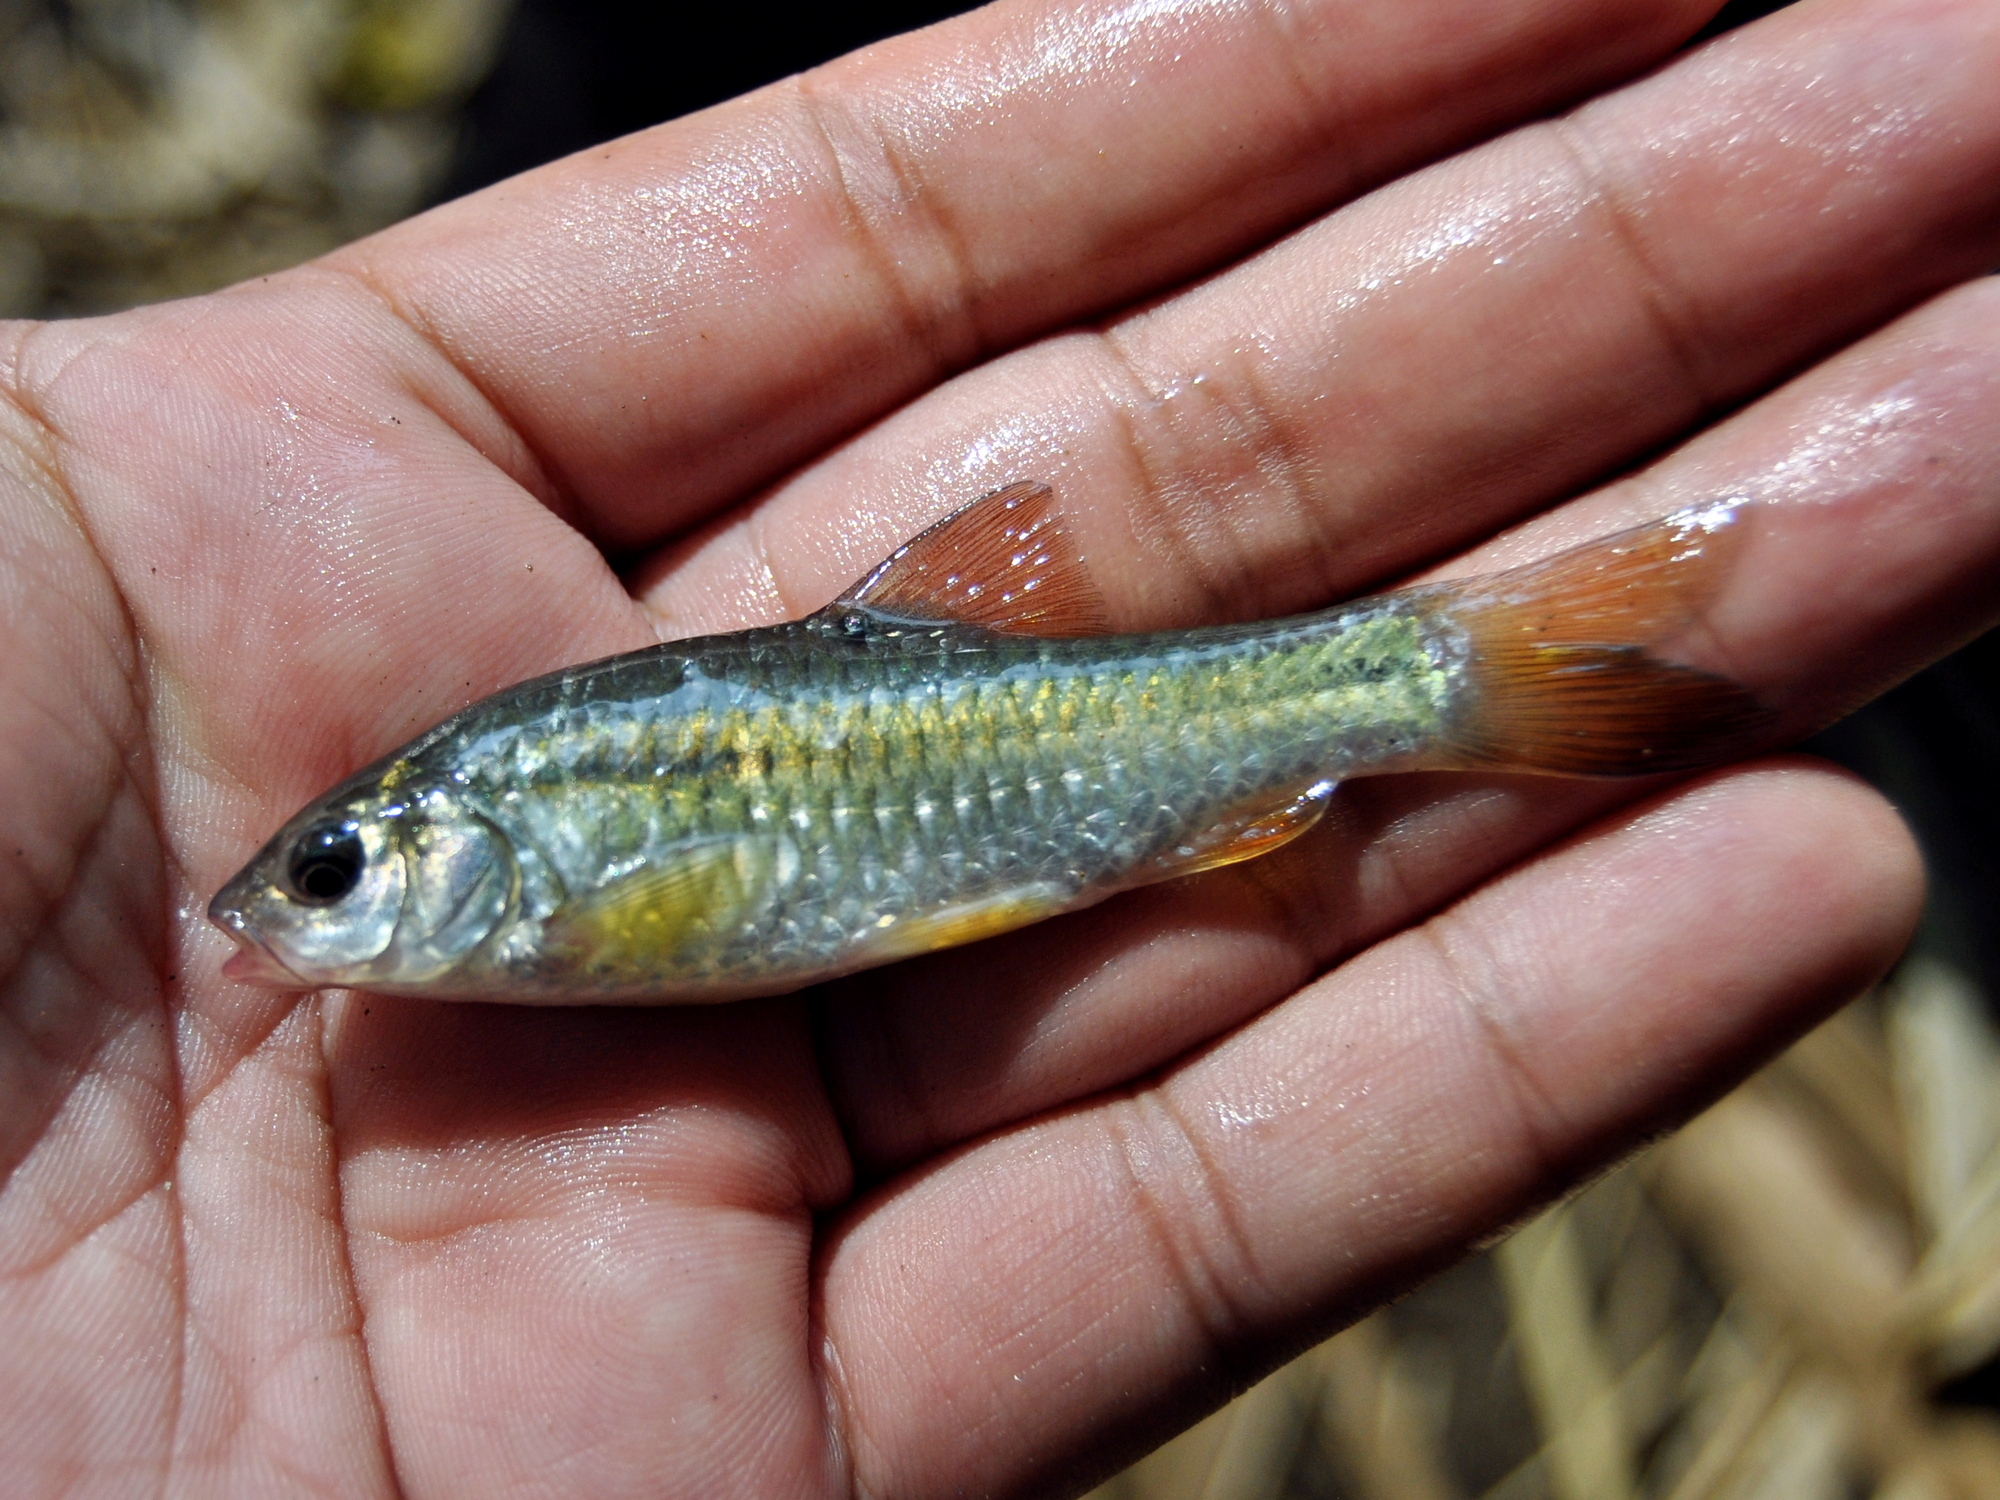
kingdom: Animalia
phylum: Chordata
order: Cypriniformes
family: Cyprinidae
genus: Puntius
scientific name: Puntius brevis
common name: Swamp barb
